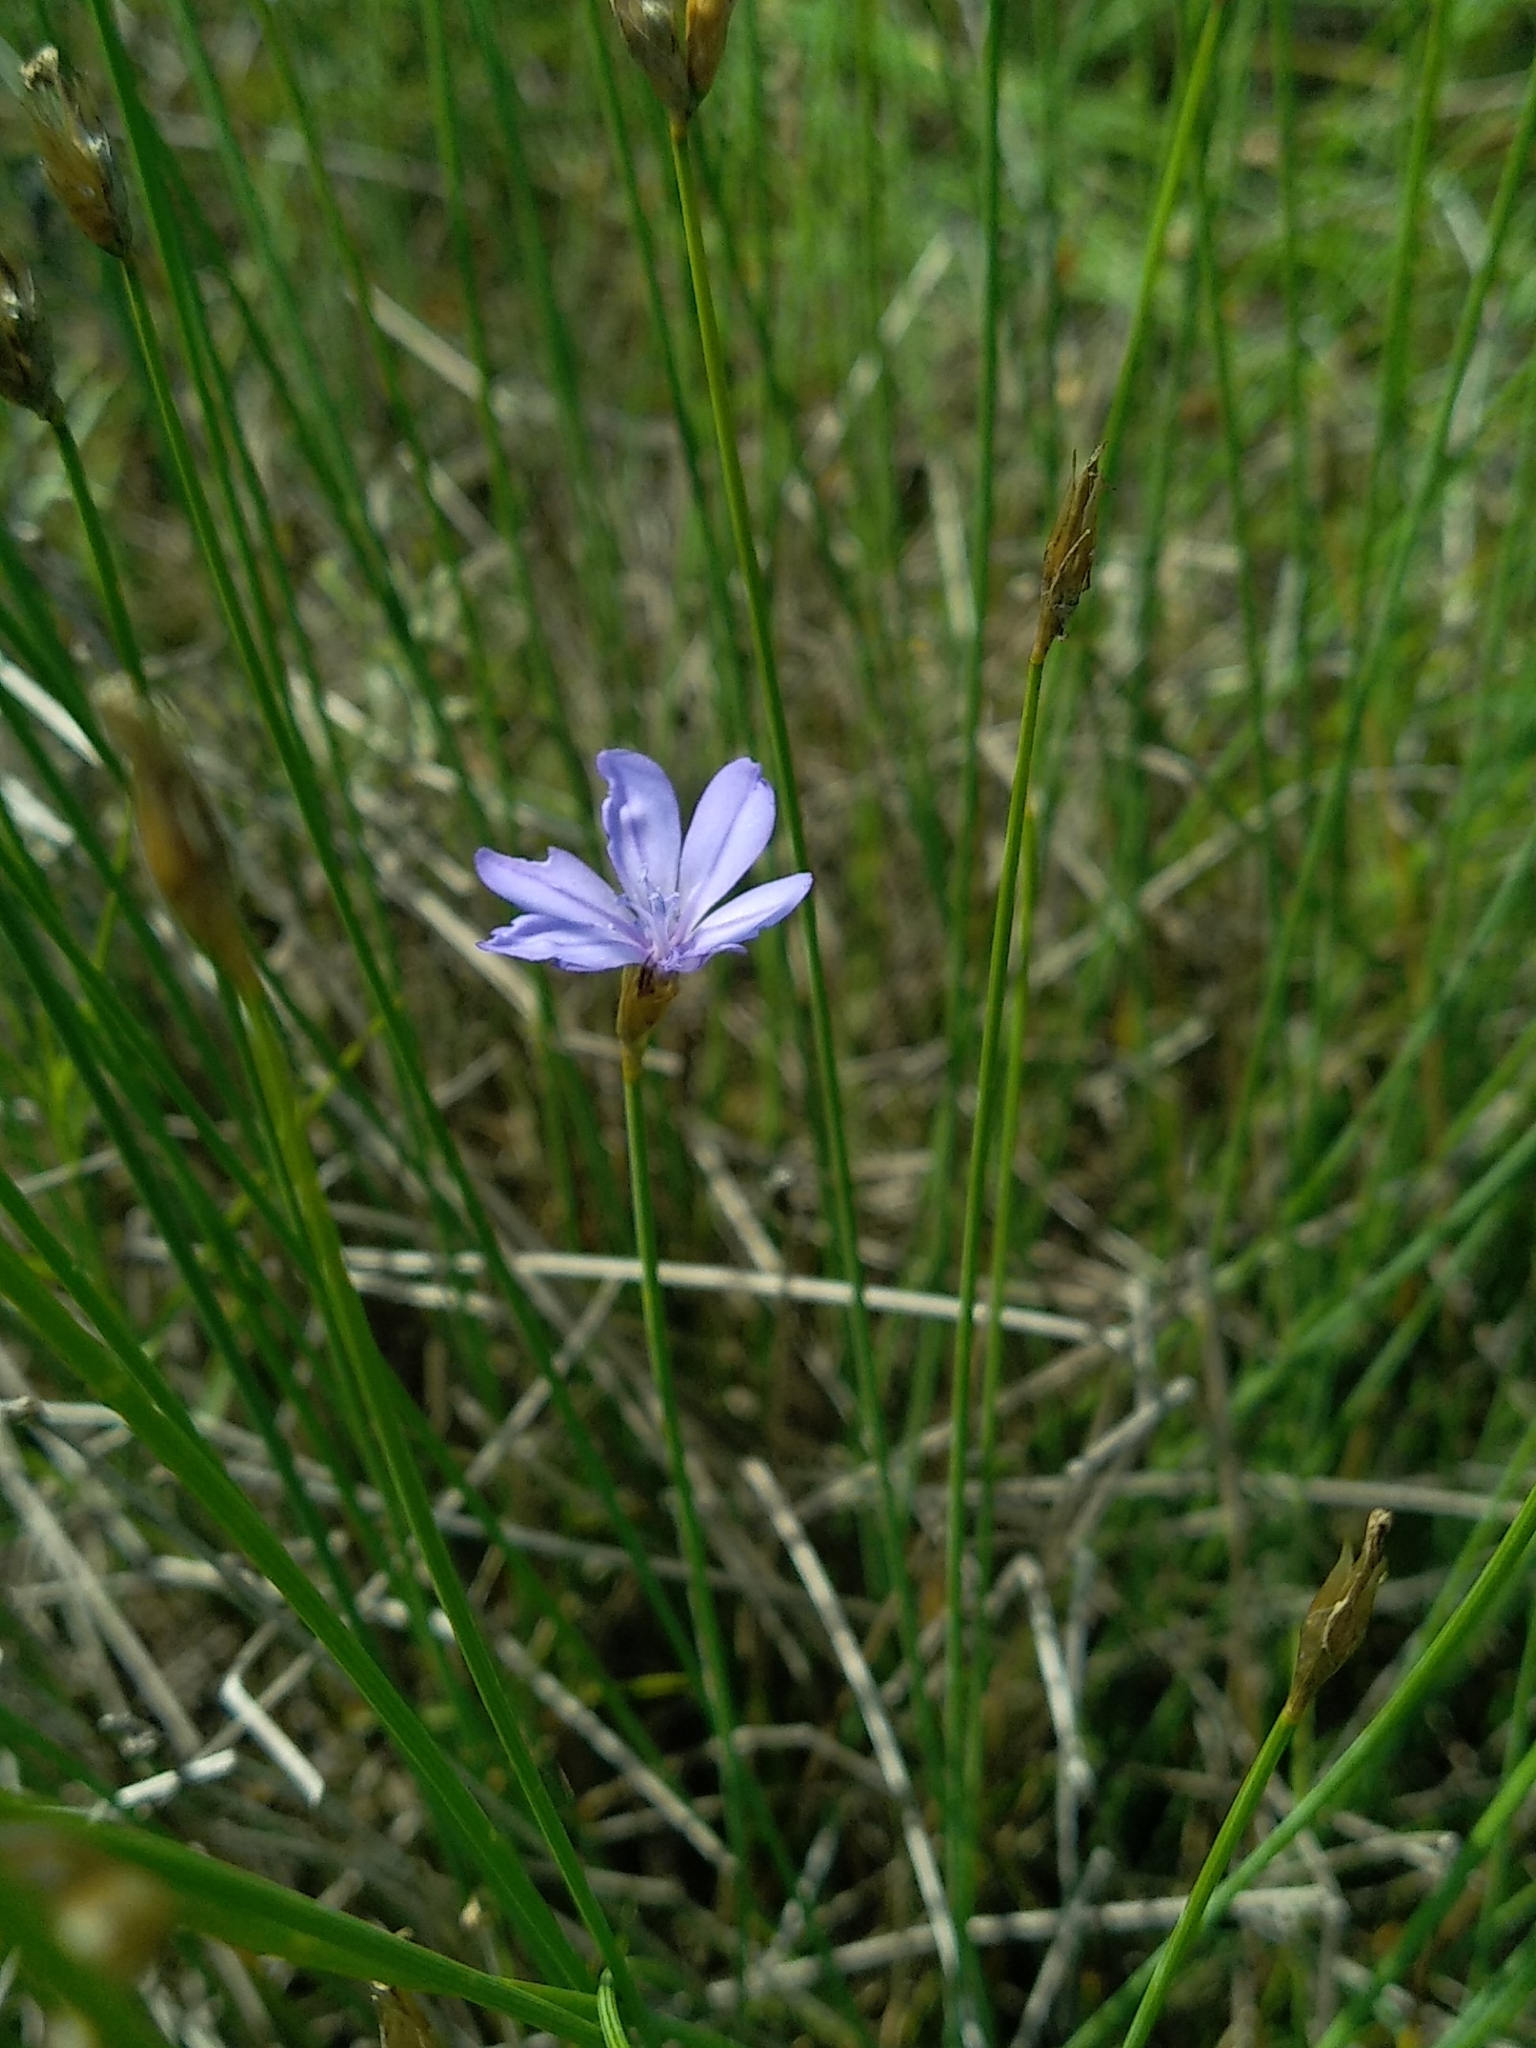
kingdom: Plantae
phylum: Tracheophyta
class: Liliopsida
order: Asparagales
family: Asparagaceae
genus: Aphyllanthes
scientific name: Aphyllanthes monspeliensis
